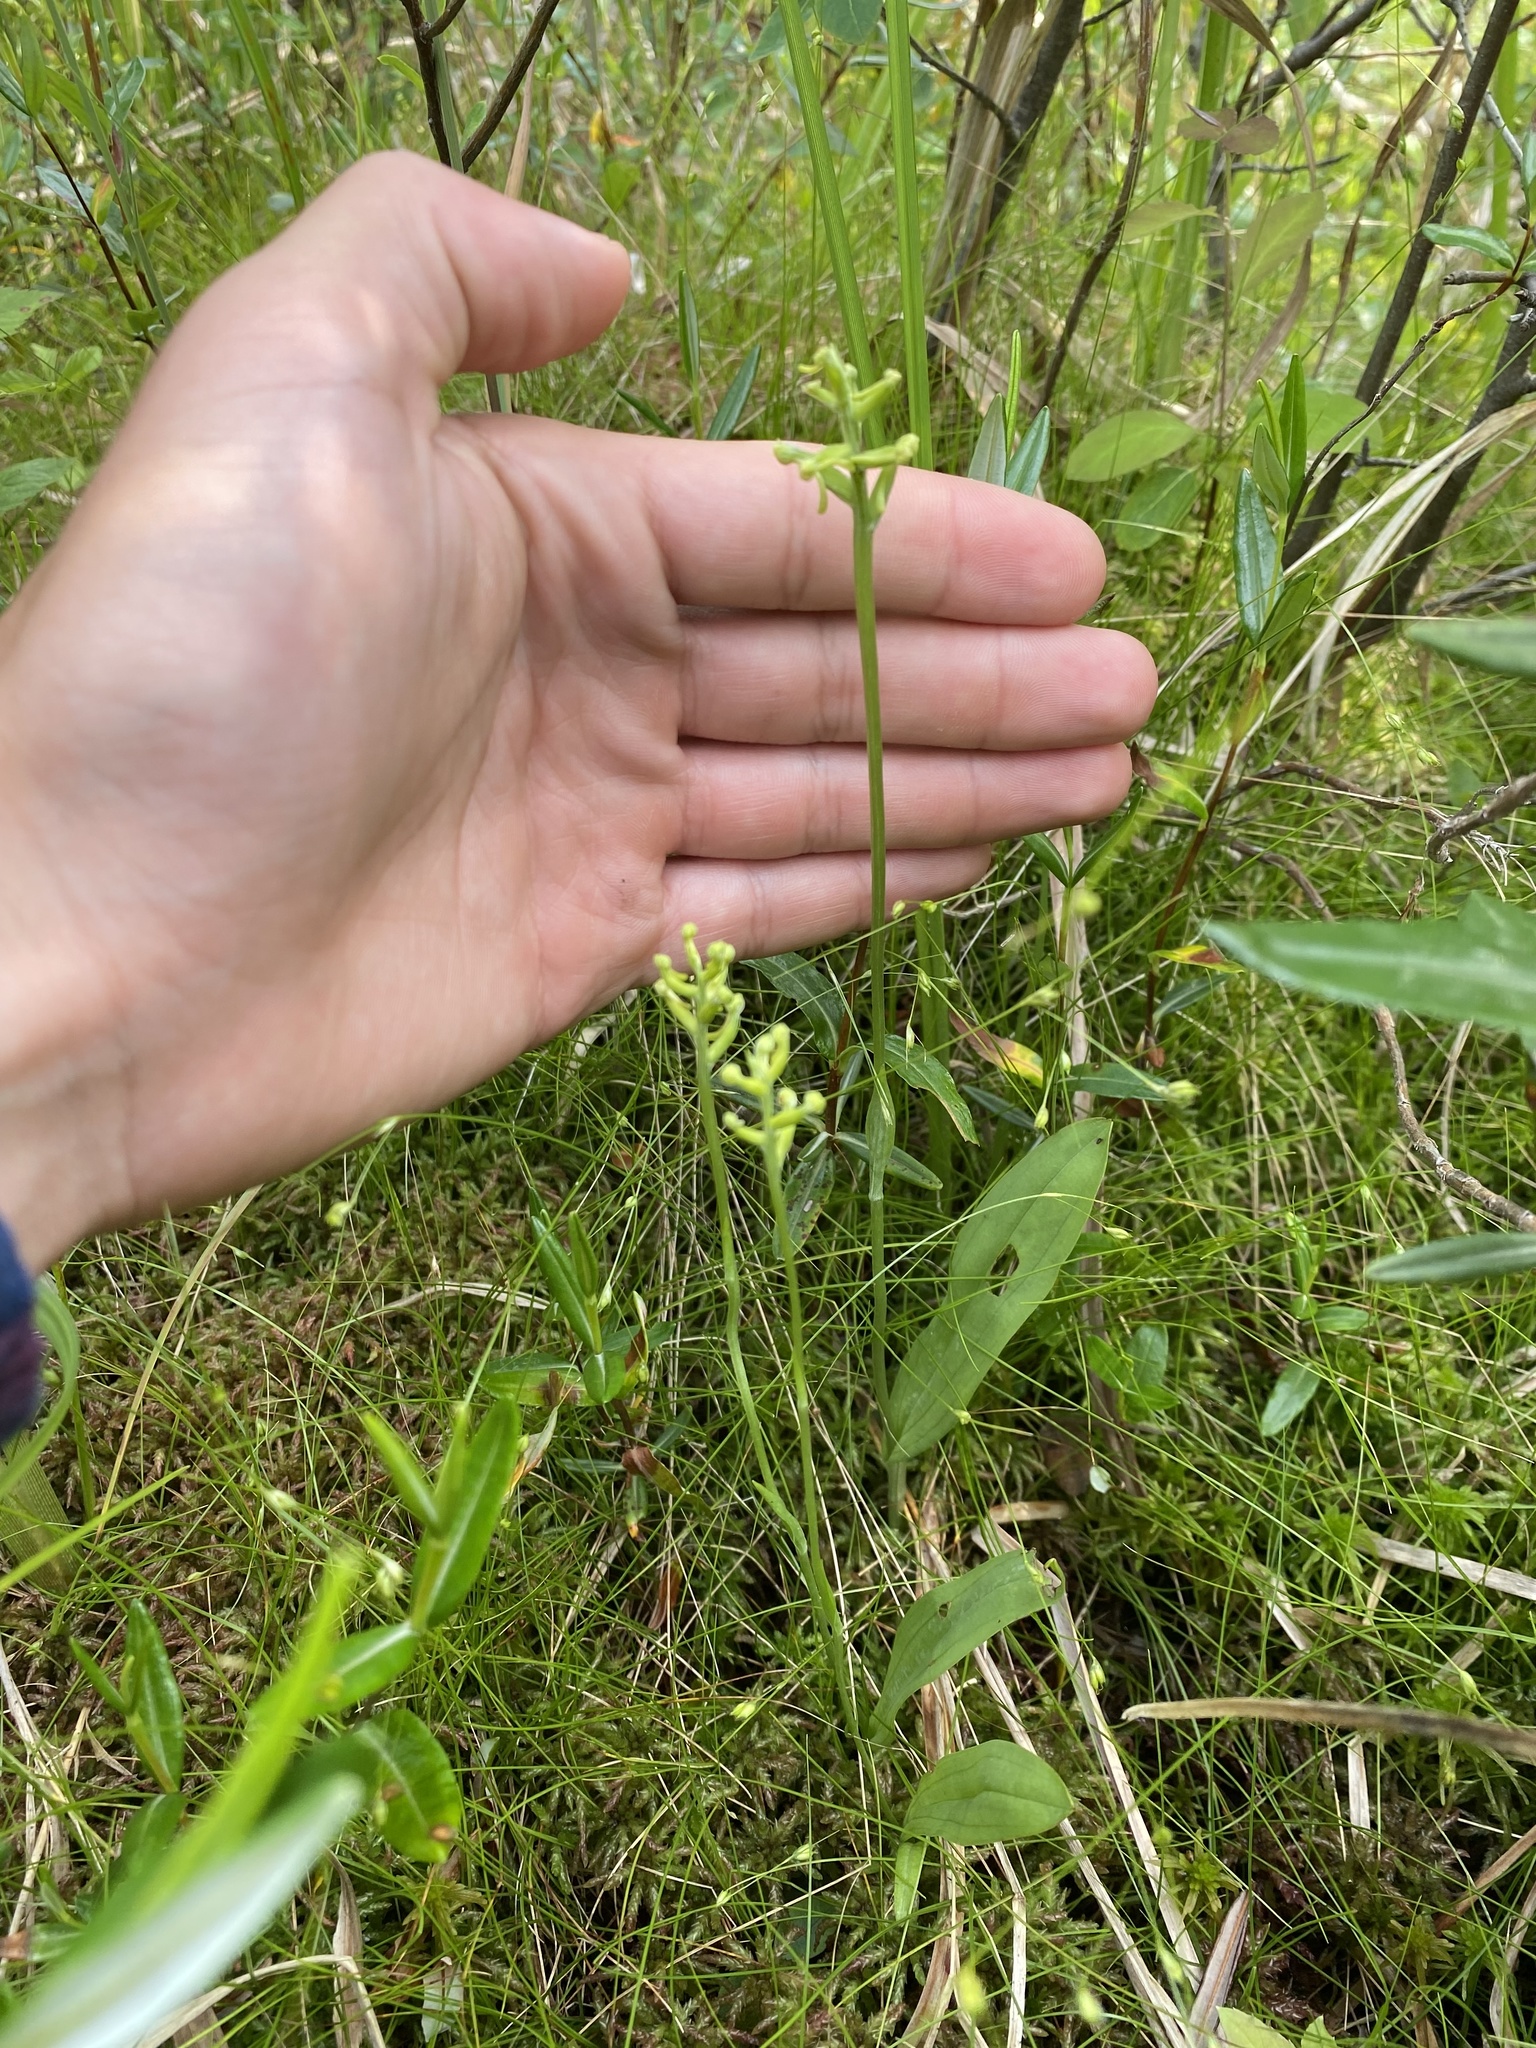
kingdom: Plantae
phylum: Tracheophyta
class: Liliopsida
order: Asparagales
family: Orchidaceae
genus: Platanthera
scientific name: Platanthera clavellata
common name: Club-spur orchid
